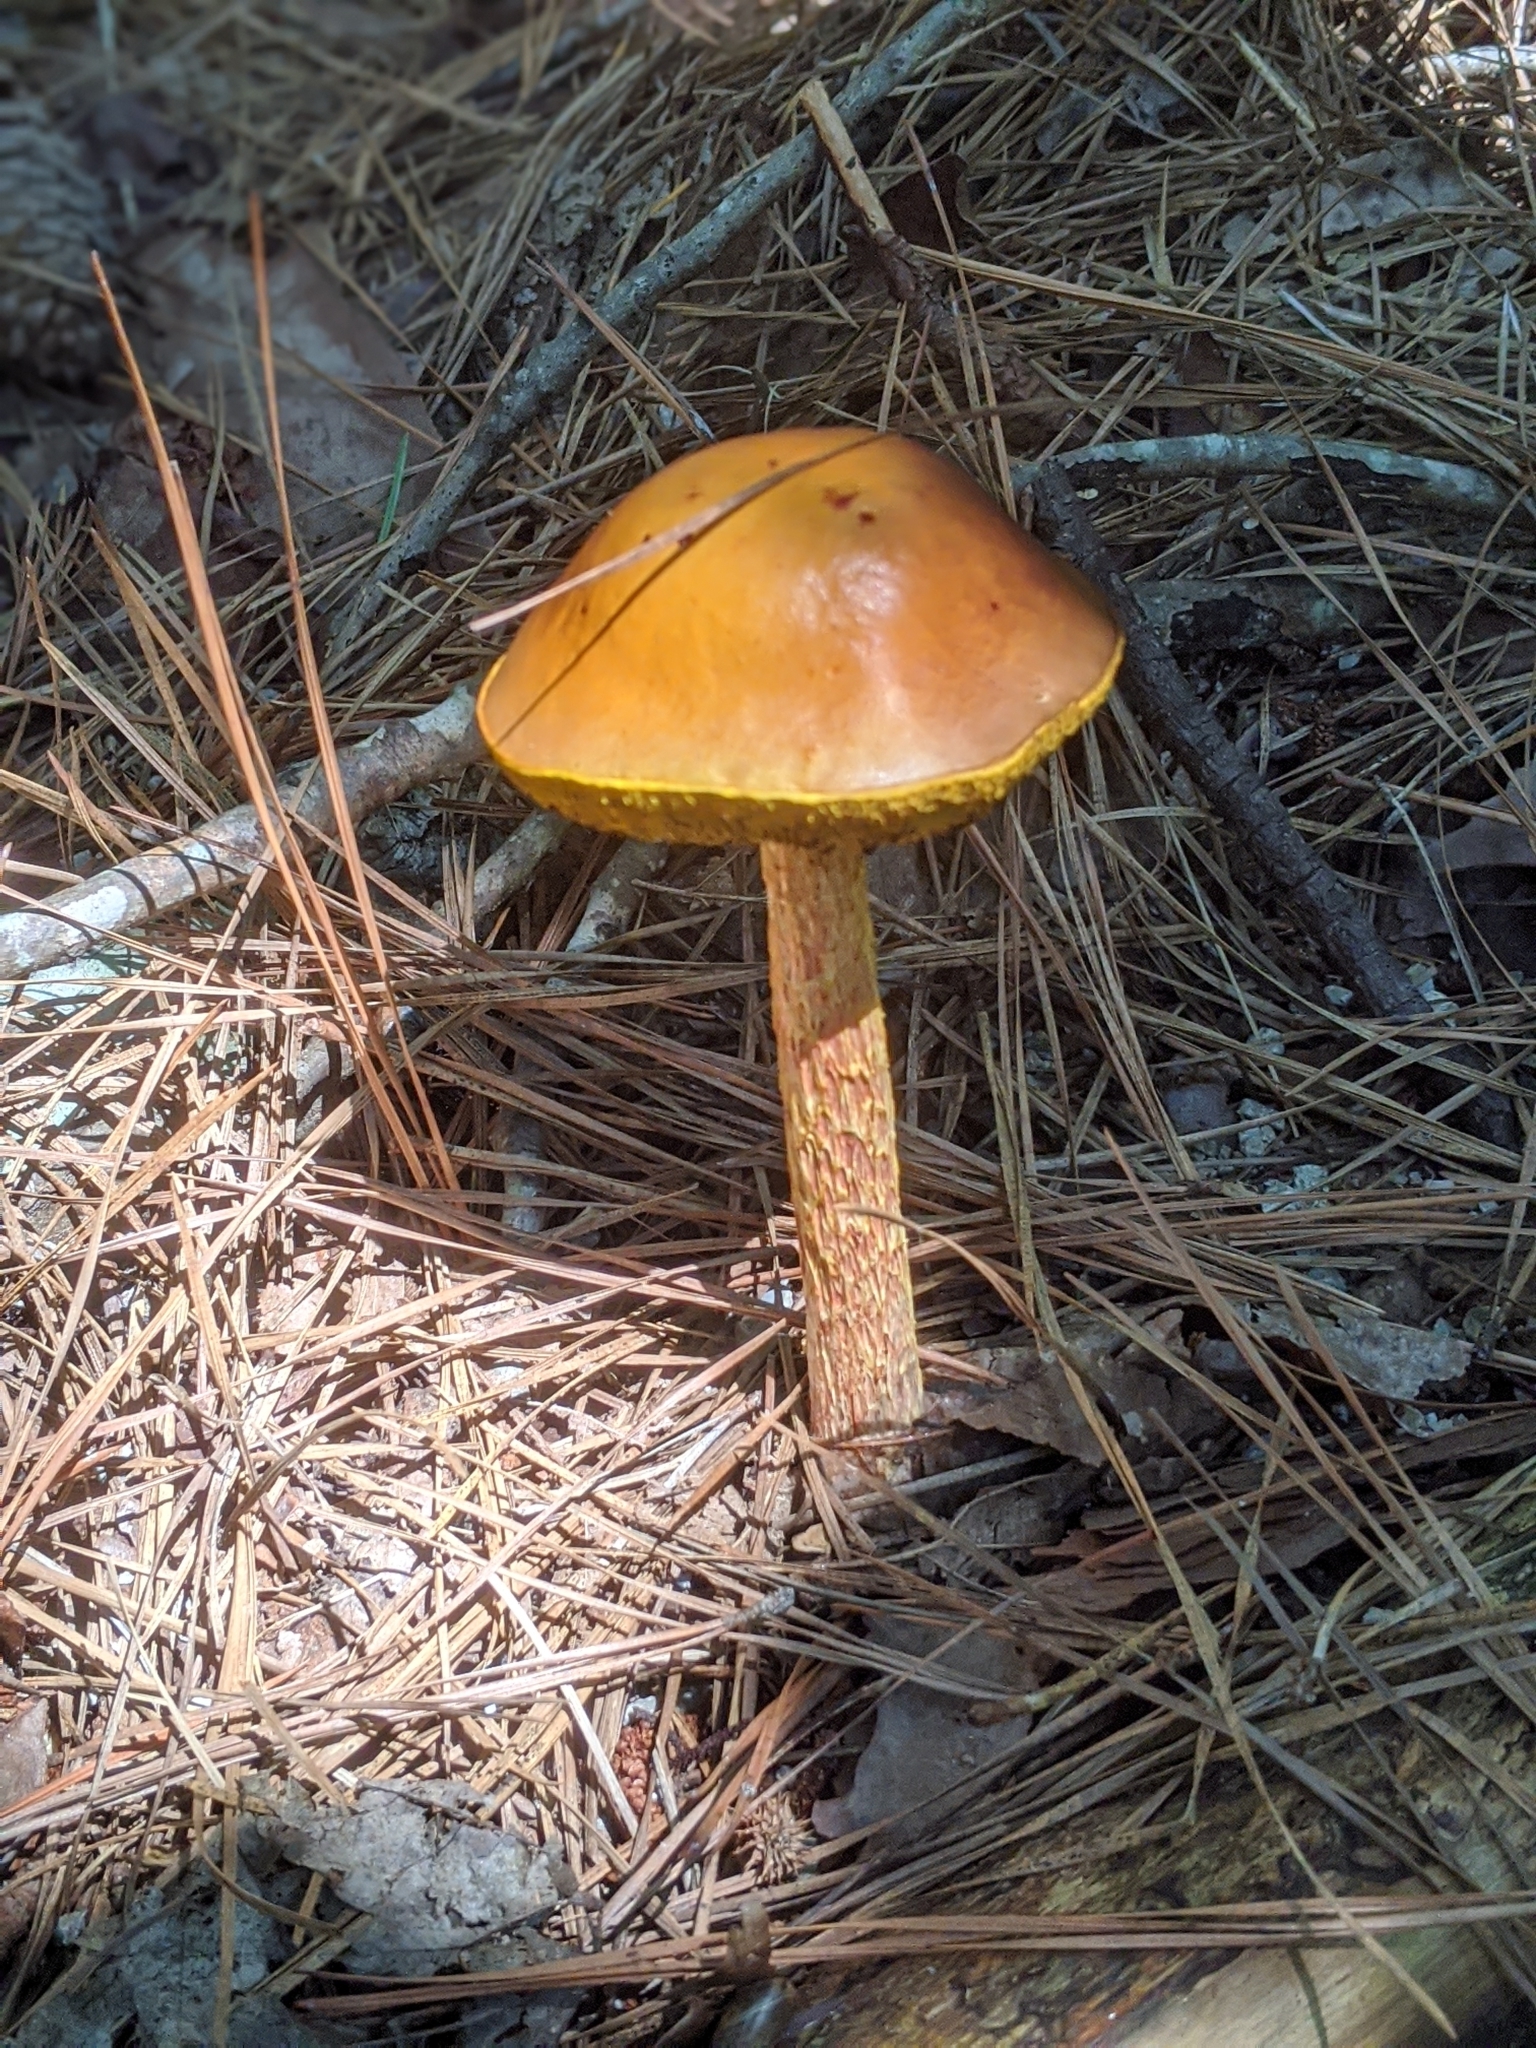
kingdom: Fungi
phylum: Basidiomycota
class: Agaricomycetes
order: Boletales
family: Boletaceae
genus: Aureoboletus
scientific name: Aureoboletus betula
